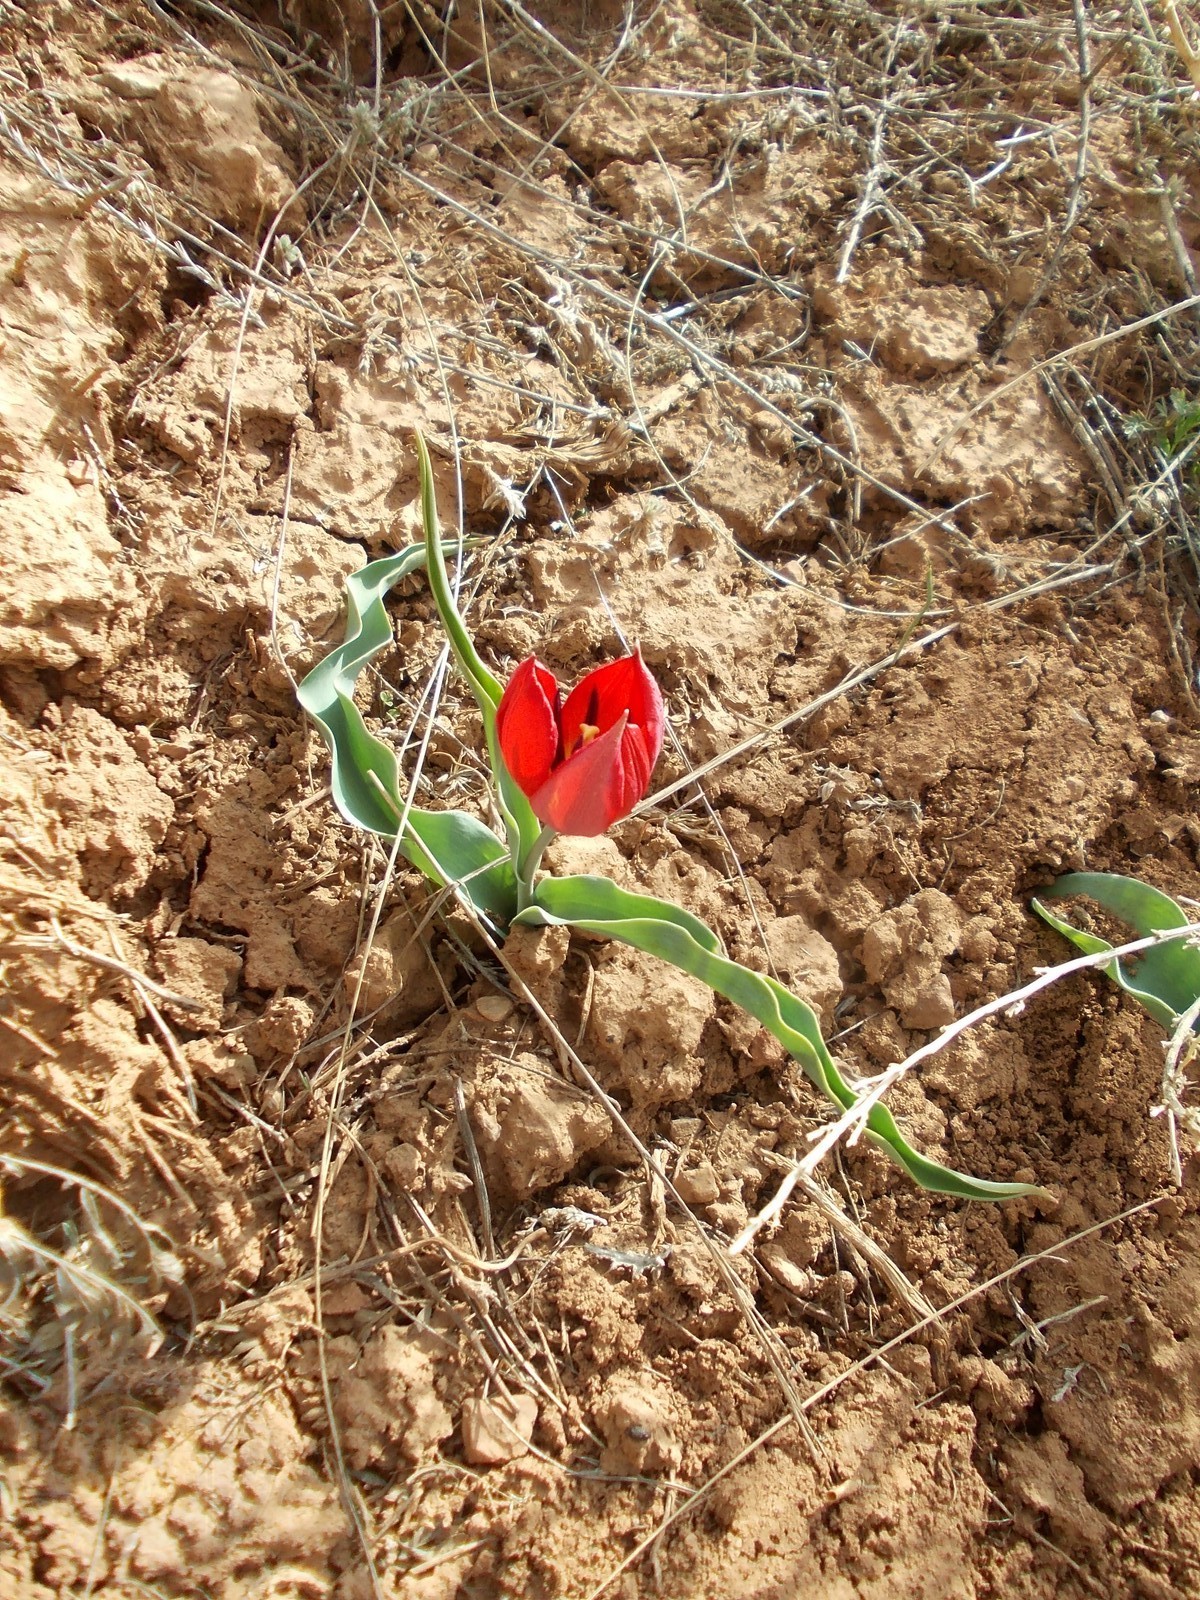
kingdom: Plantae
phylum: Tracheophyta
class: Liliopsida
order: Liliales
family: Liliaceae
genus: Tulipa
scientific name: Tulipa suaveolens
